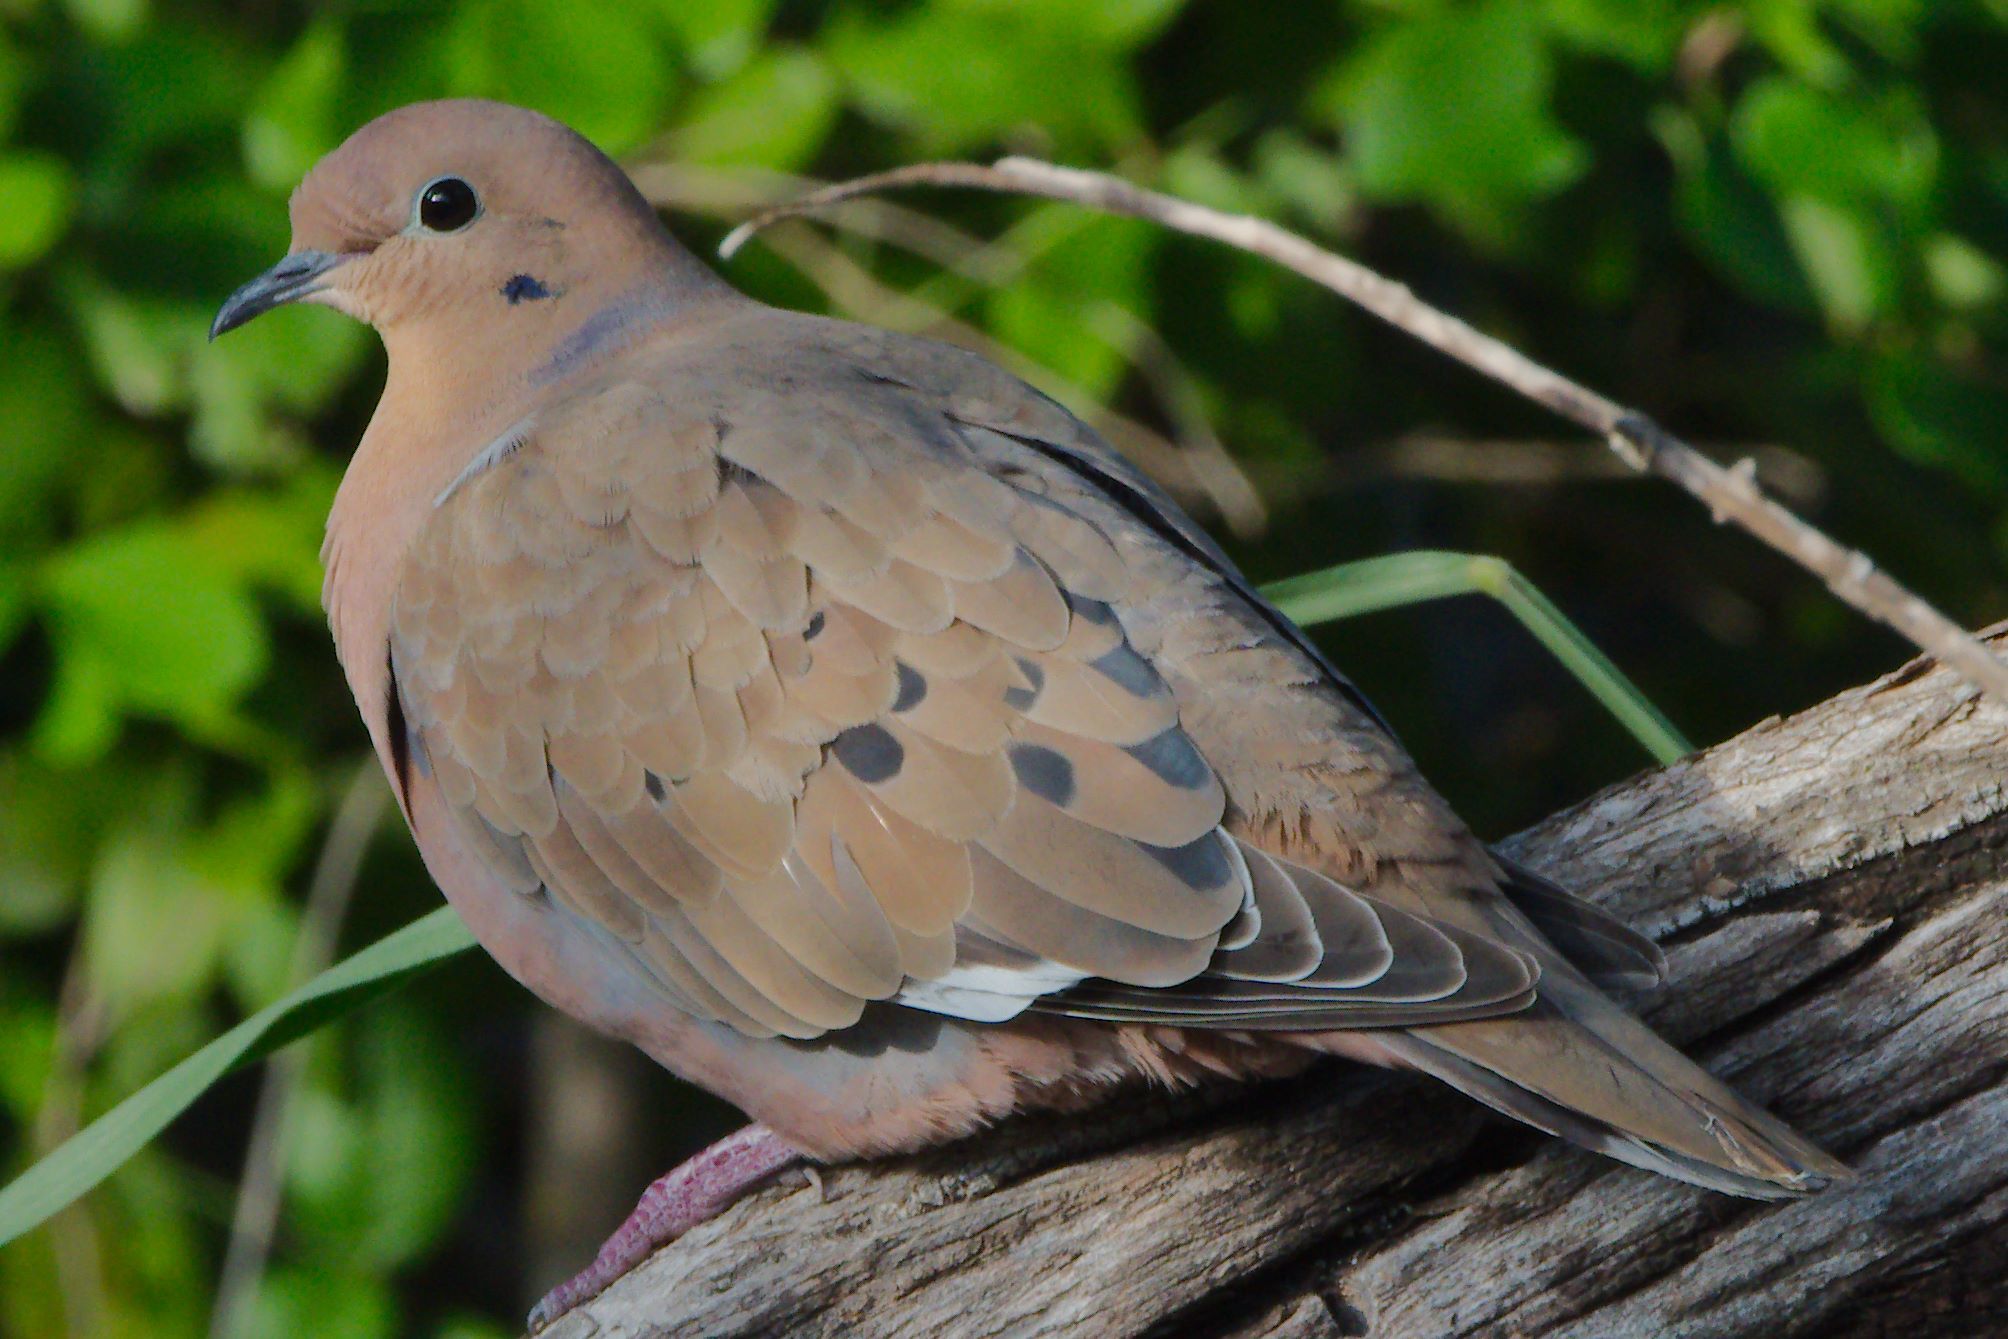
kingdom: Animalia
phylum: Chordata
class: Aves
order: Columbiformes
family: Columbidae
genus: Zenaida
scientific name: Zenaida aurita
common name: Zenaida dove
